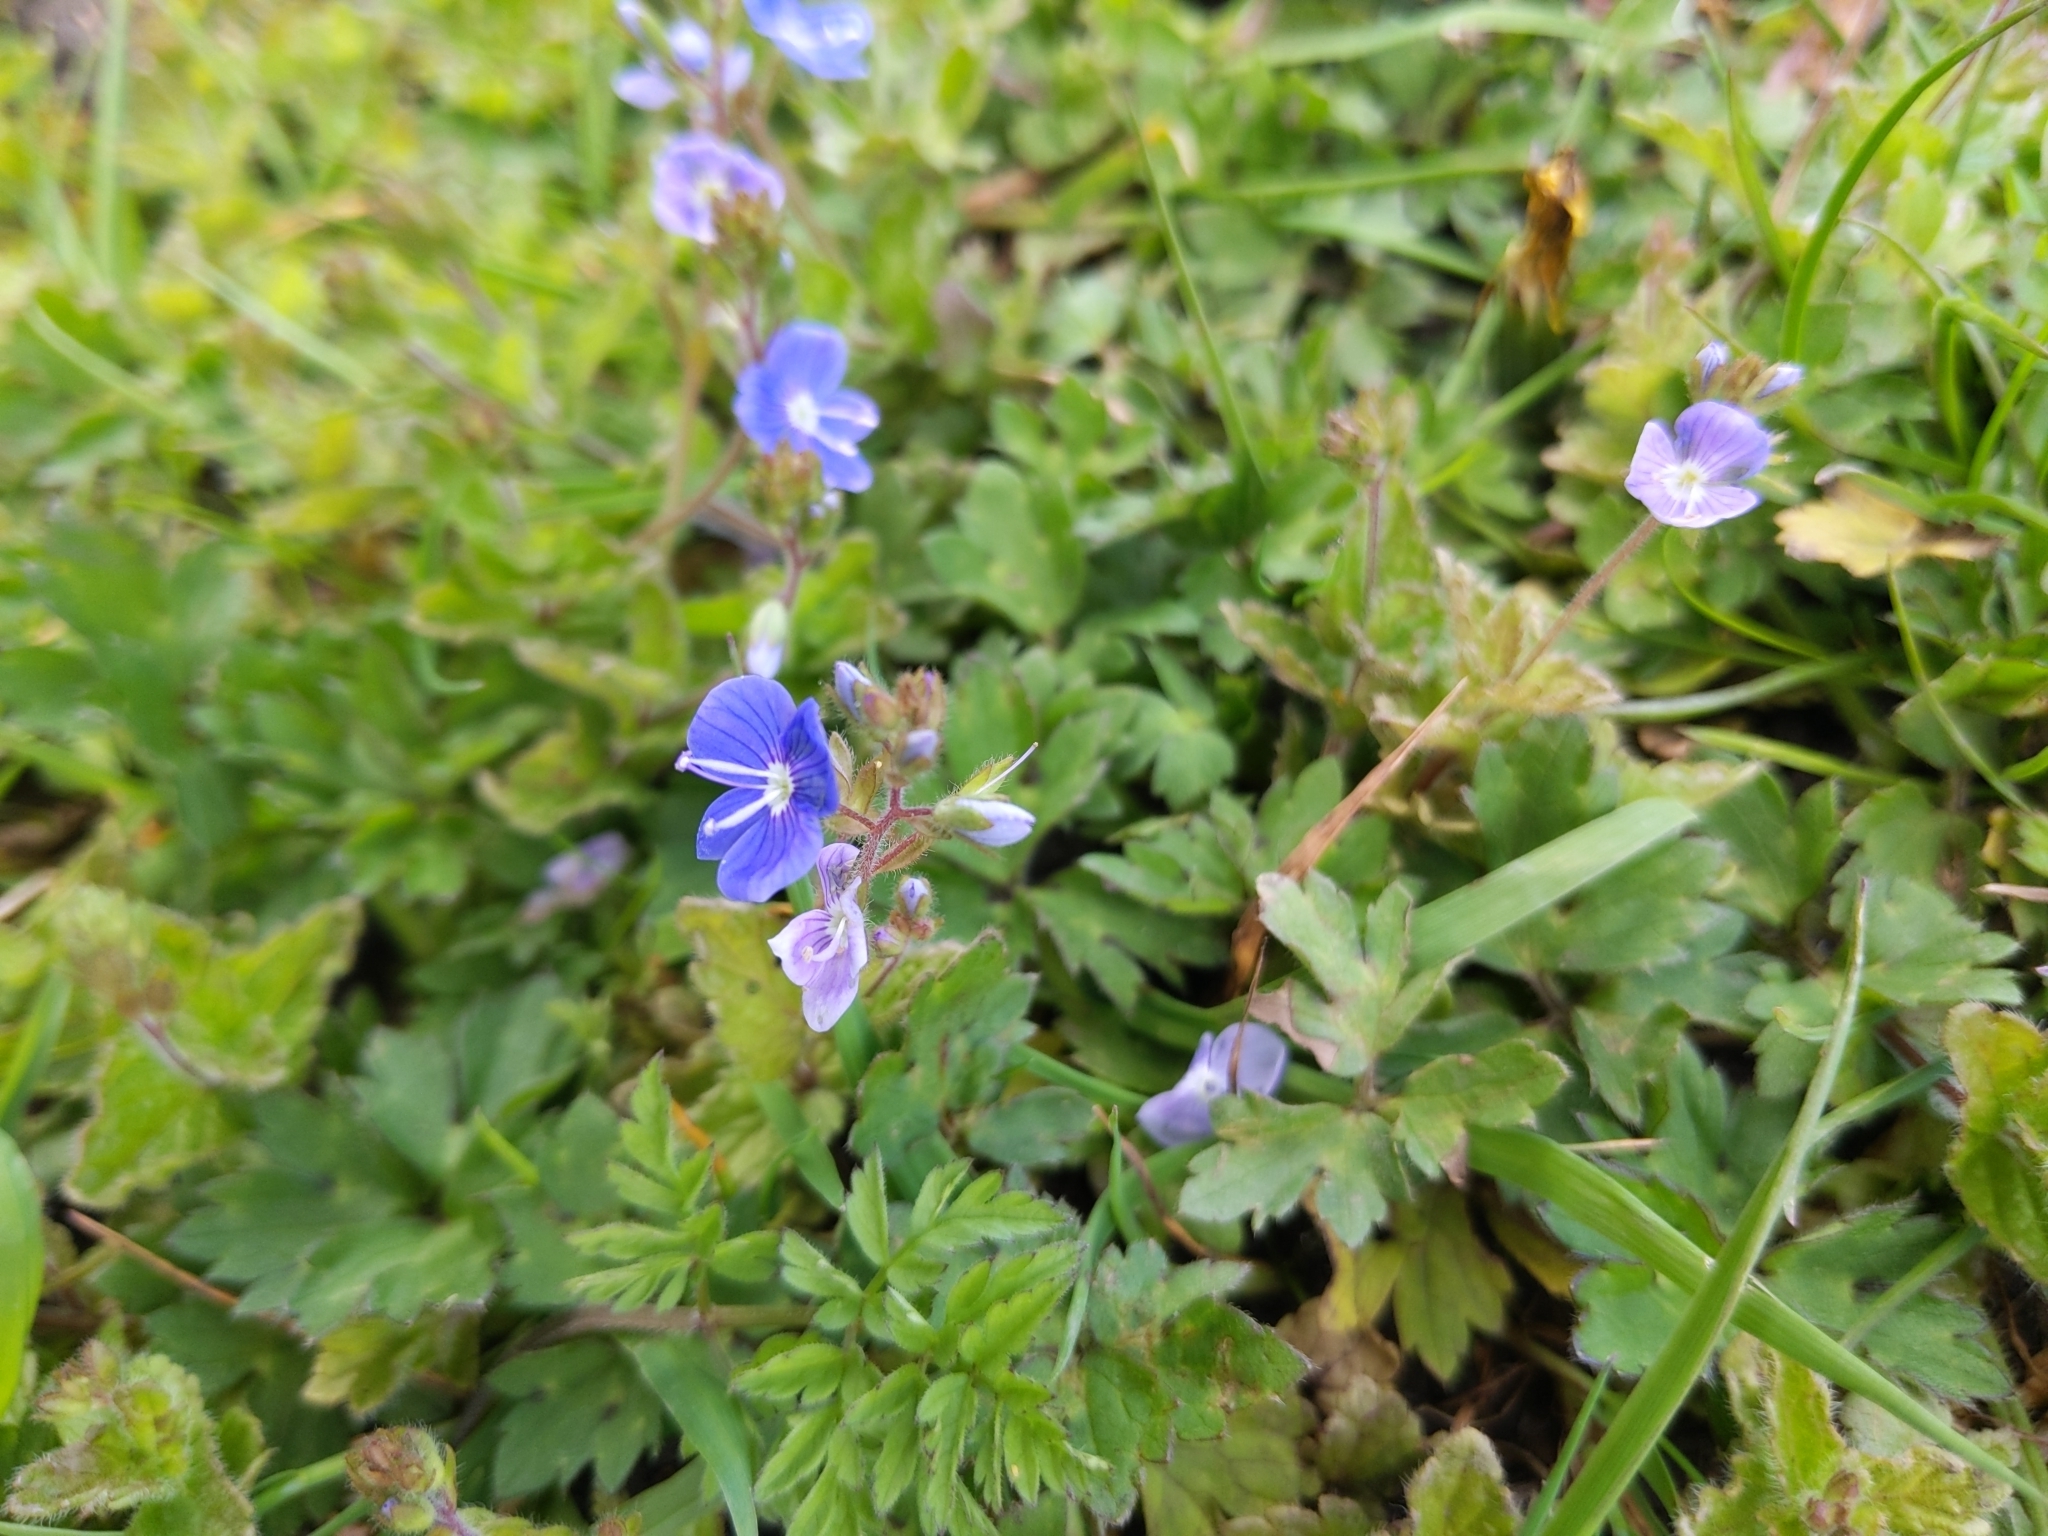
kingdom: Plantae
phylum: Tracheophyta
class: Magnoliopsida
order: Lamiales
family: Plantaginaceae
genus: Veronica
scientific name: Veronica chamaedrys
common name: Germander speedwell
